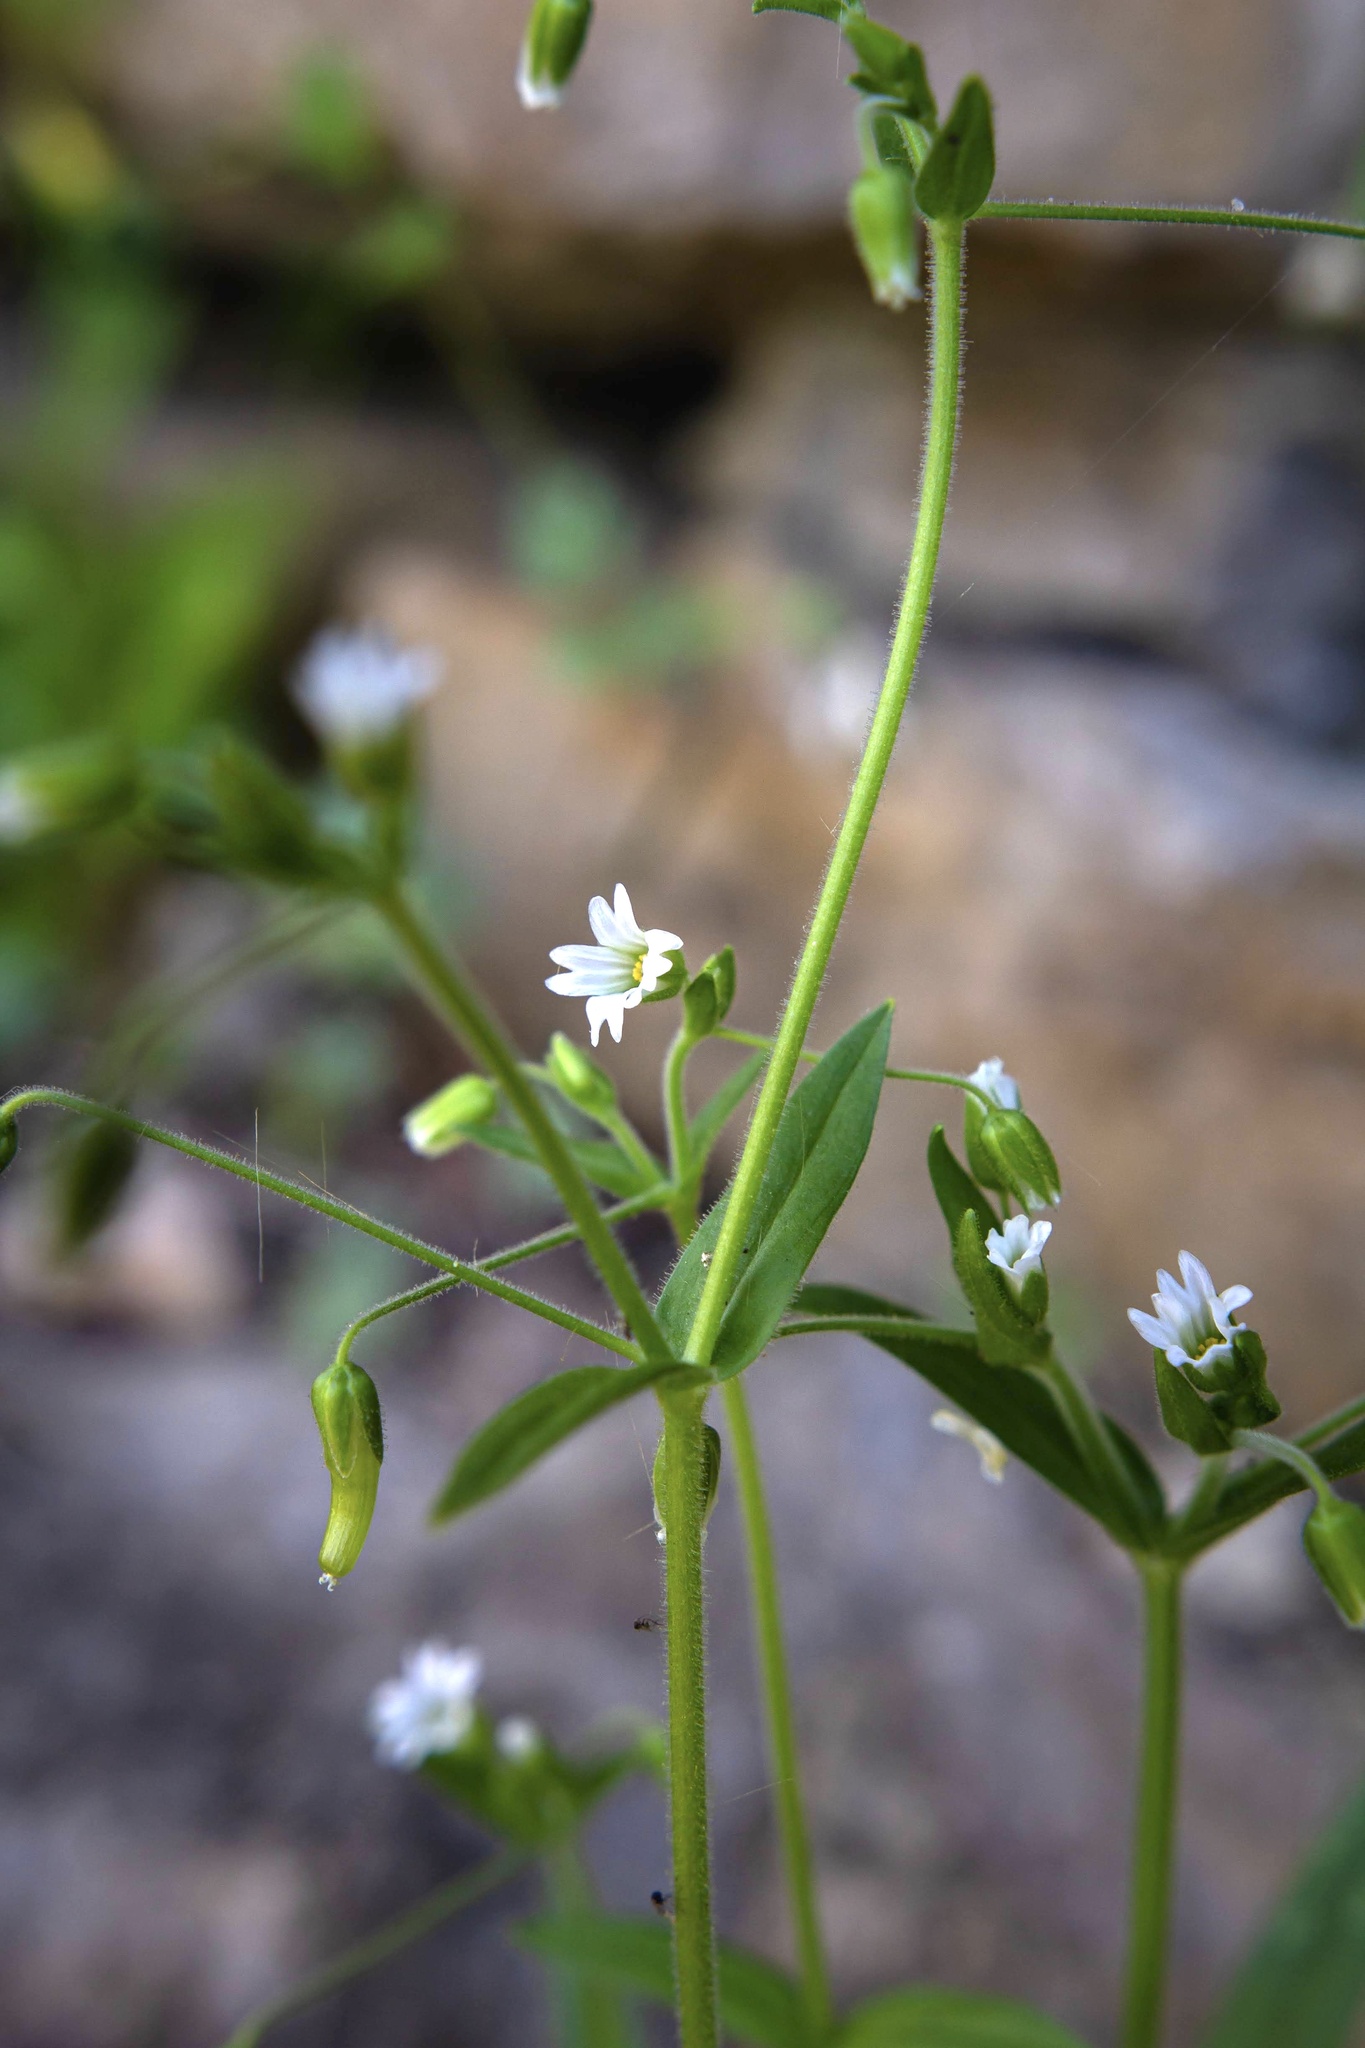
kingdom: Plantae
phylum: Tracheophyta
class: Magnoliopsida
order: Caryophyllales
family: Caryophyllaceae
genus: Cerastium
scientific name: Cerastium nutans
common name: Long-stalked chickweed
